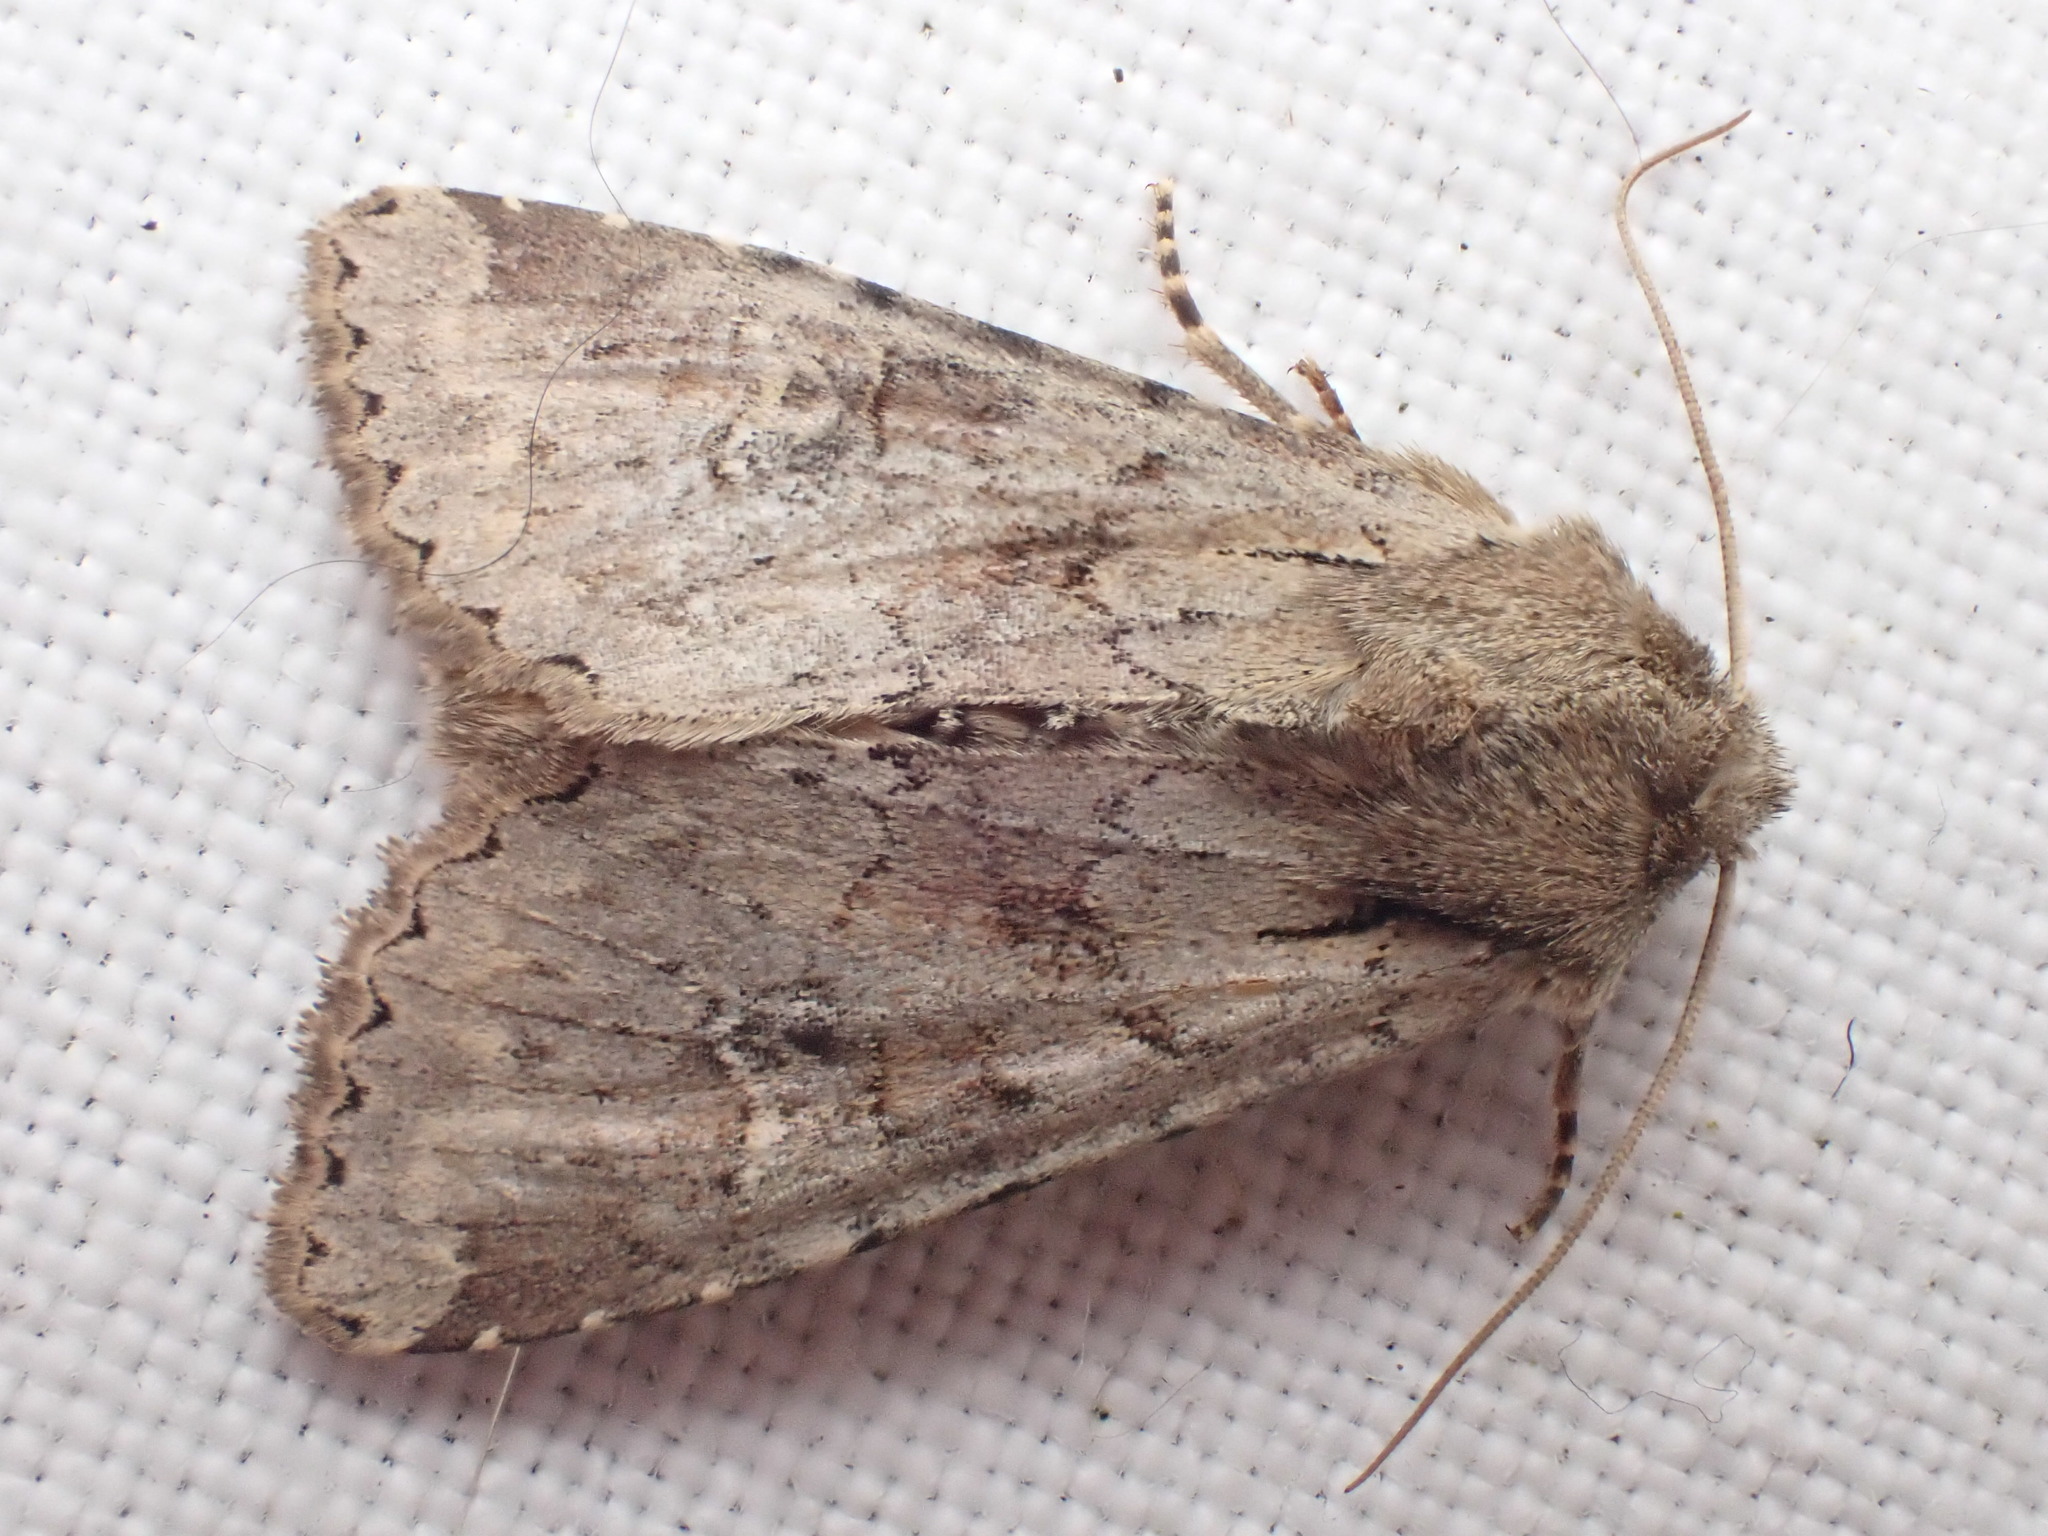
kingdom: Animalia
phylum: Arthropoda
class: Insecta
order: Lepidoptera
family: Noctuidae
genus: Apamea
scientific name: Apamea sordens
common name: Rustic shoulder-knot
